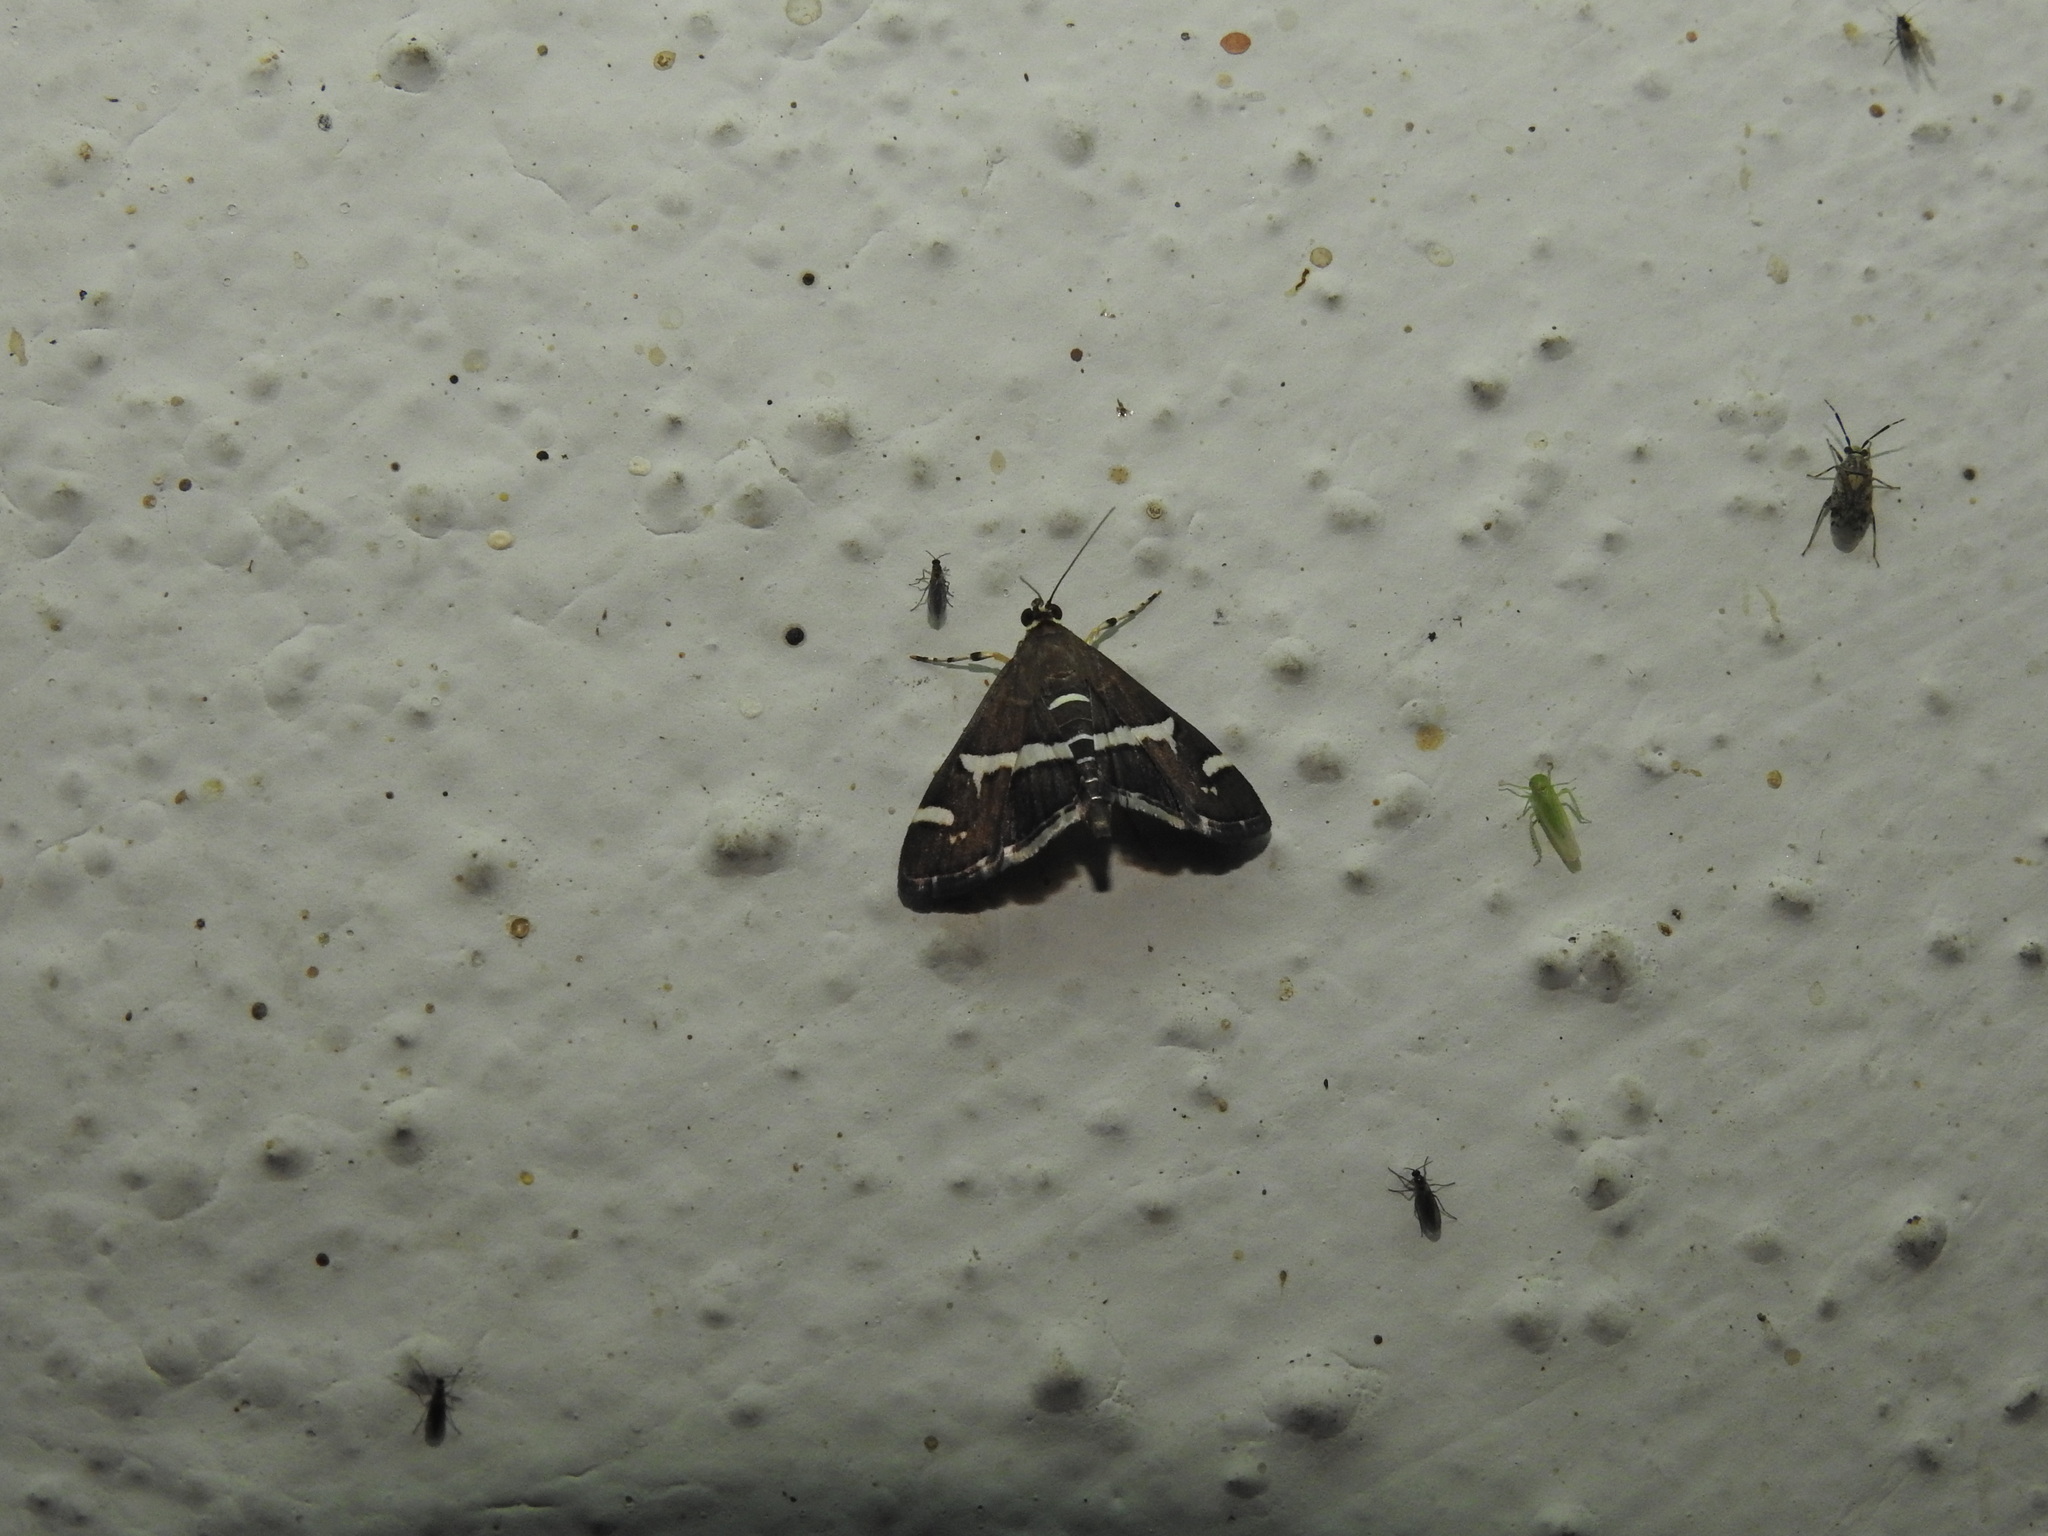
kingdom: Animalia
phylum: Arthropoda
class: Insecta
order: Lepidoptera
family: Crambidae
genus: Spoladea
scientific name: Spoladea recurvalis
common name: Beet webworm moth
